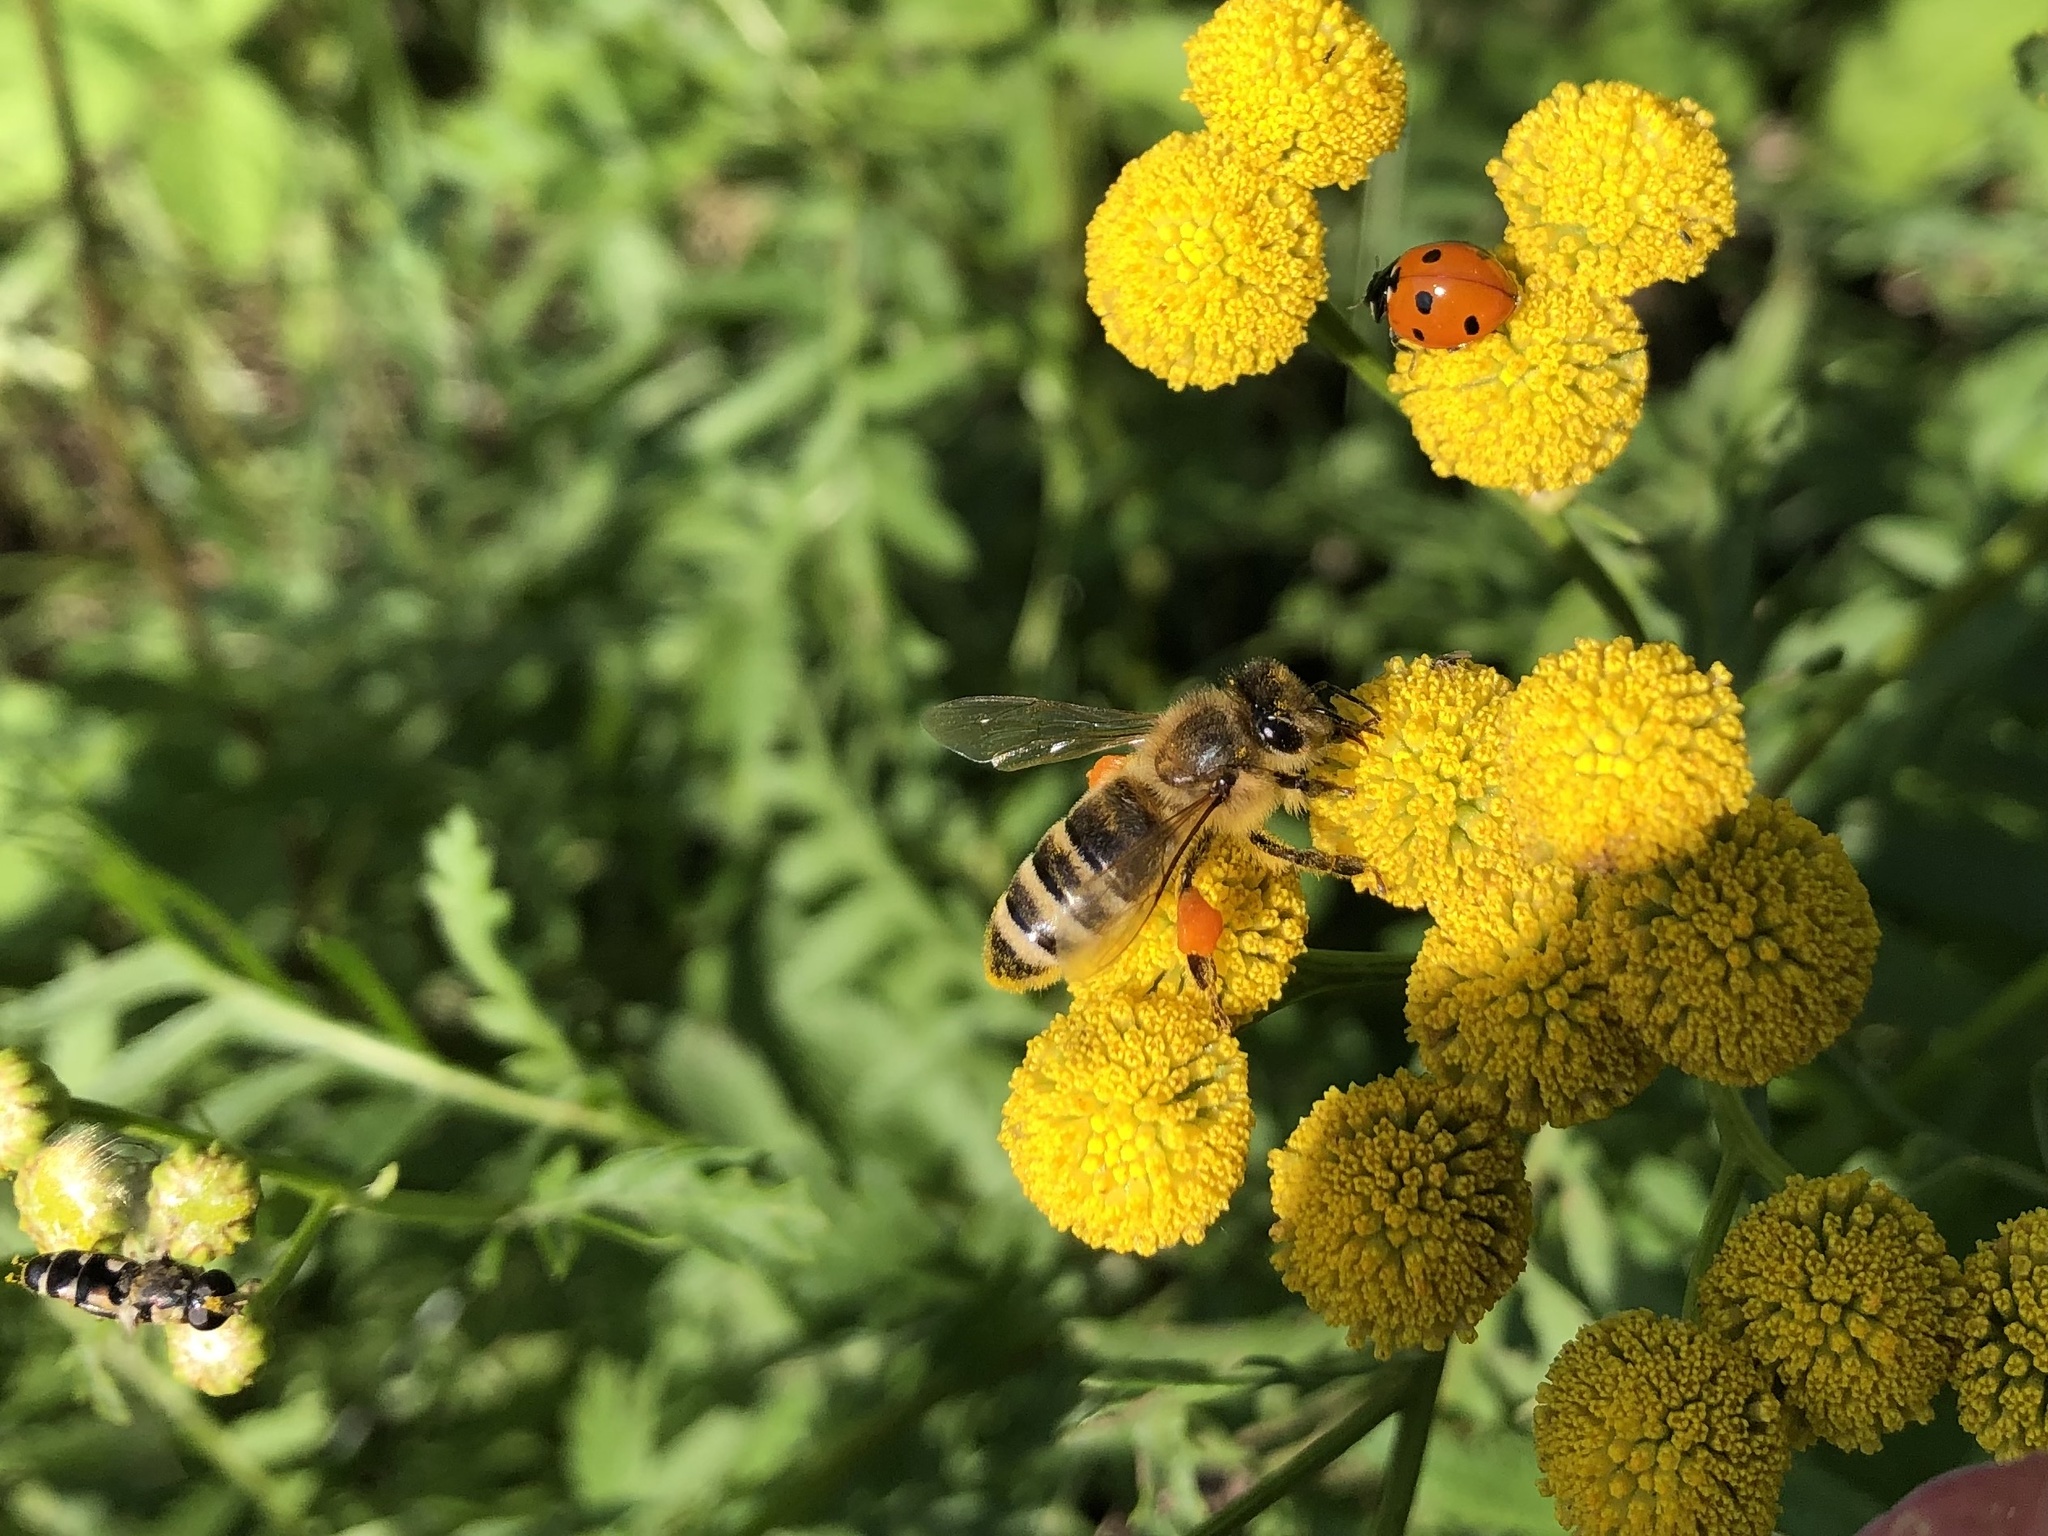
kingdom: Animalia
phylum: Arthropoda
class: Insecta
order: Hymenoptera
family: Apidae
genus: Apis
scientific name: Apis mellifera
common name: Honey bee
